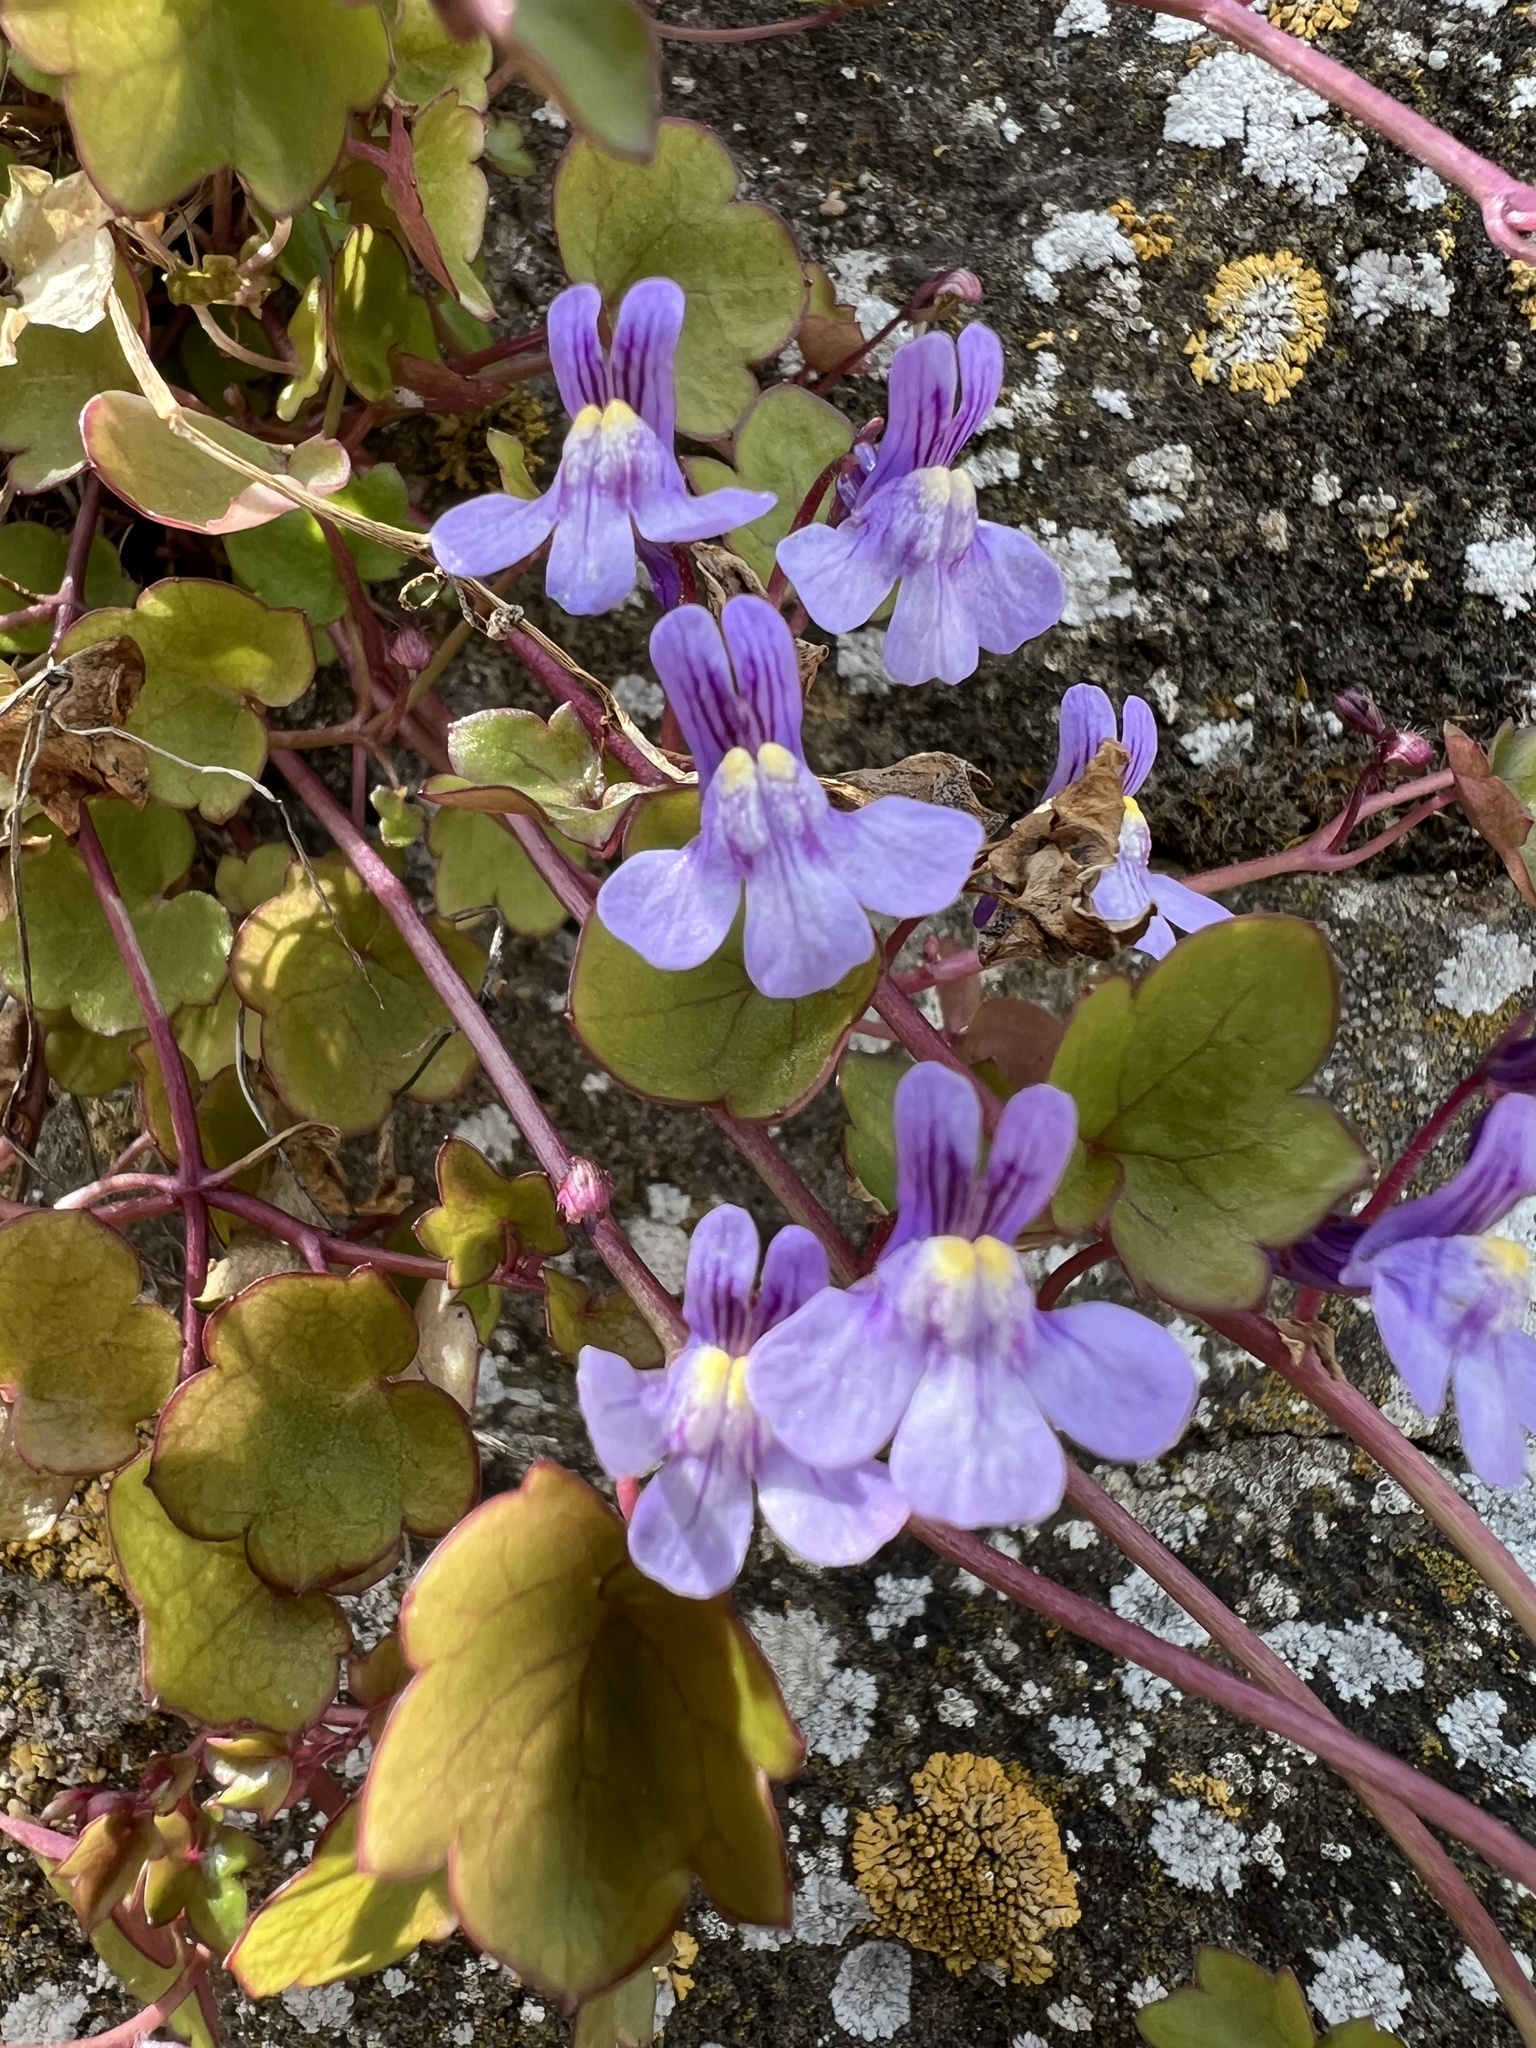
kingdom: Plantae
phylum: Tracheophyta
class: Magnoliopsida
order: Lamiales
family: Plantaginaceae
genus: Cymbalaria
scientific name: Cymbalaria muralis
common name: Ivy-leaved toadflax
